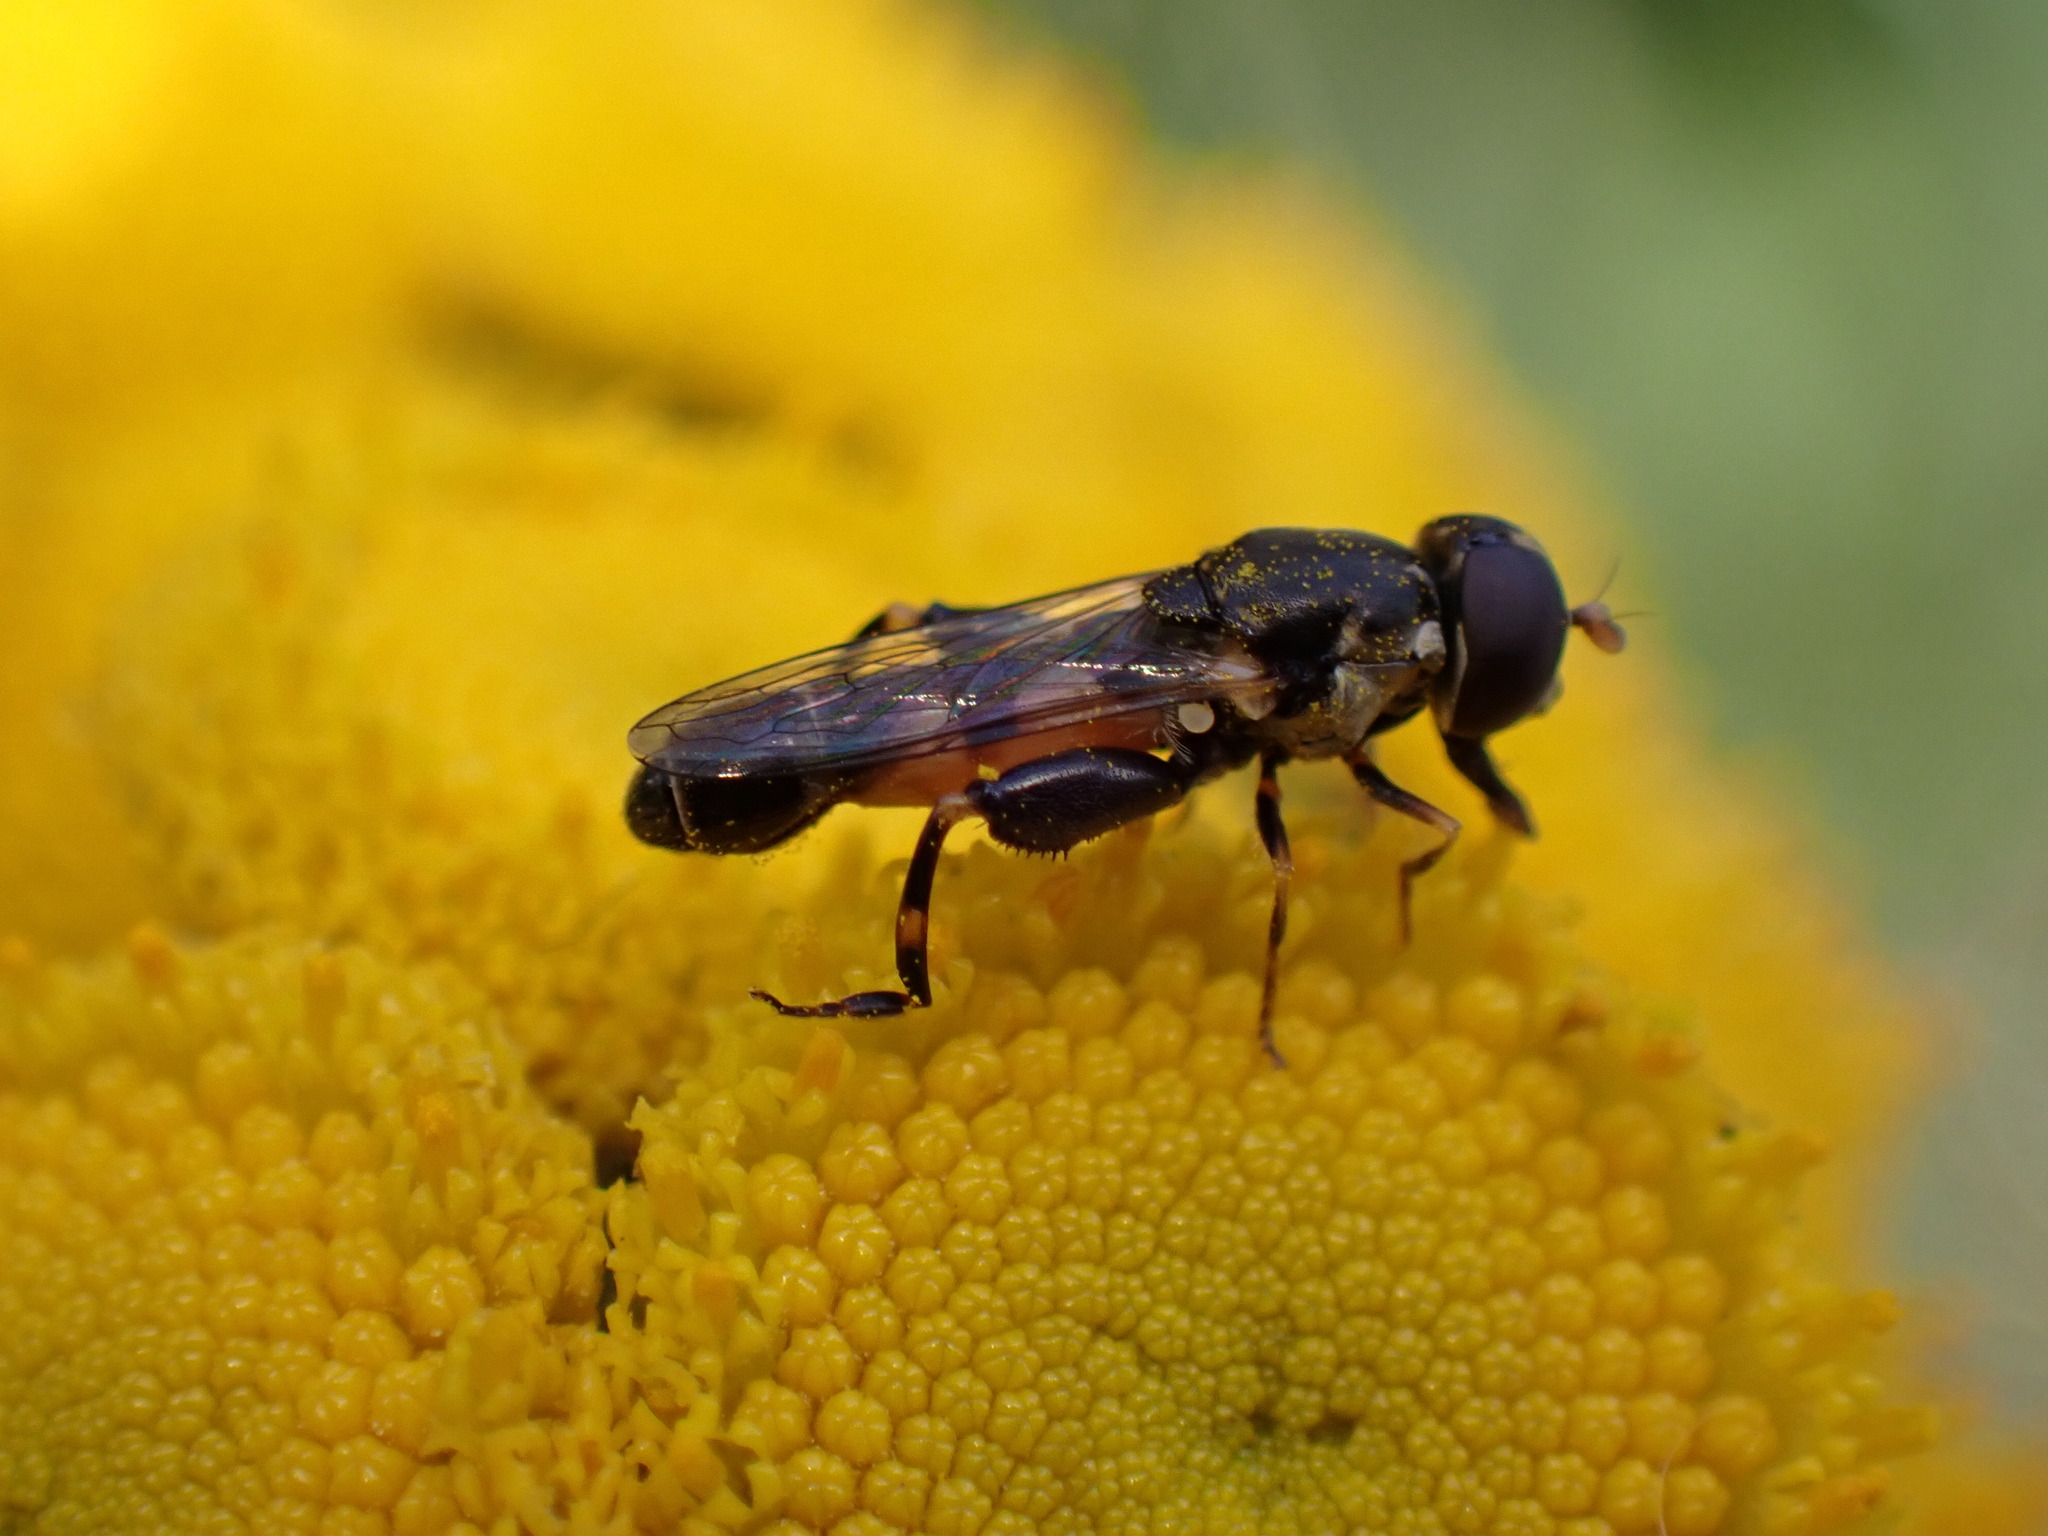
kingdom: Animalia
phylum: Arthropoda
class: Insecta
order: Diptera
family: Syrphidae
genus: Syritta
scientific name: Syritta pipiens
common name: Hover fly
